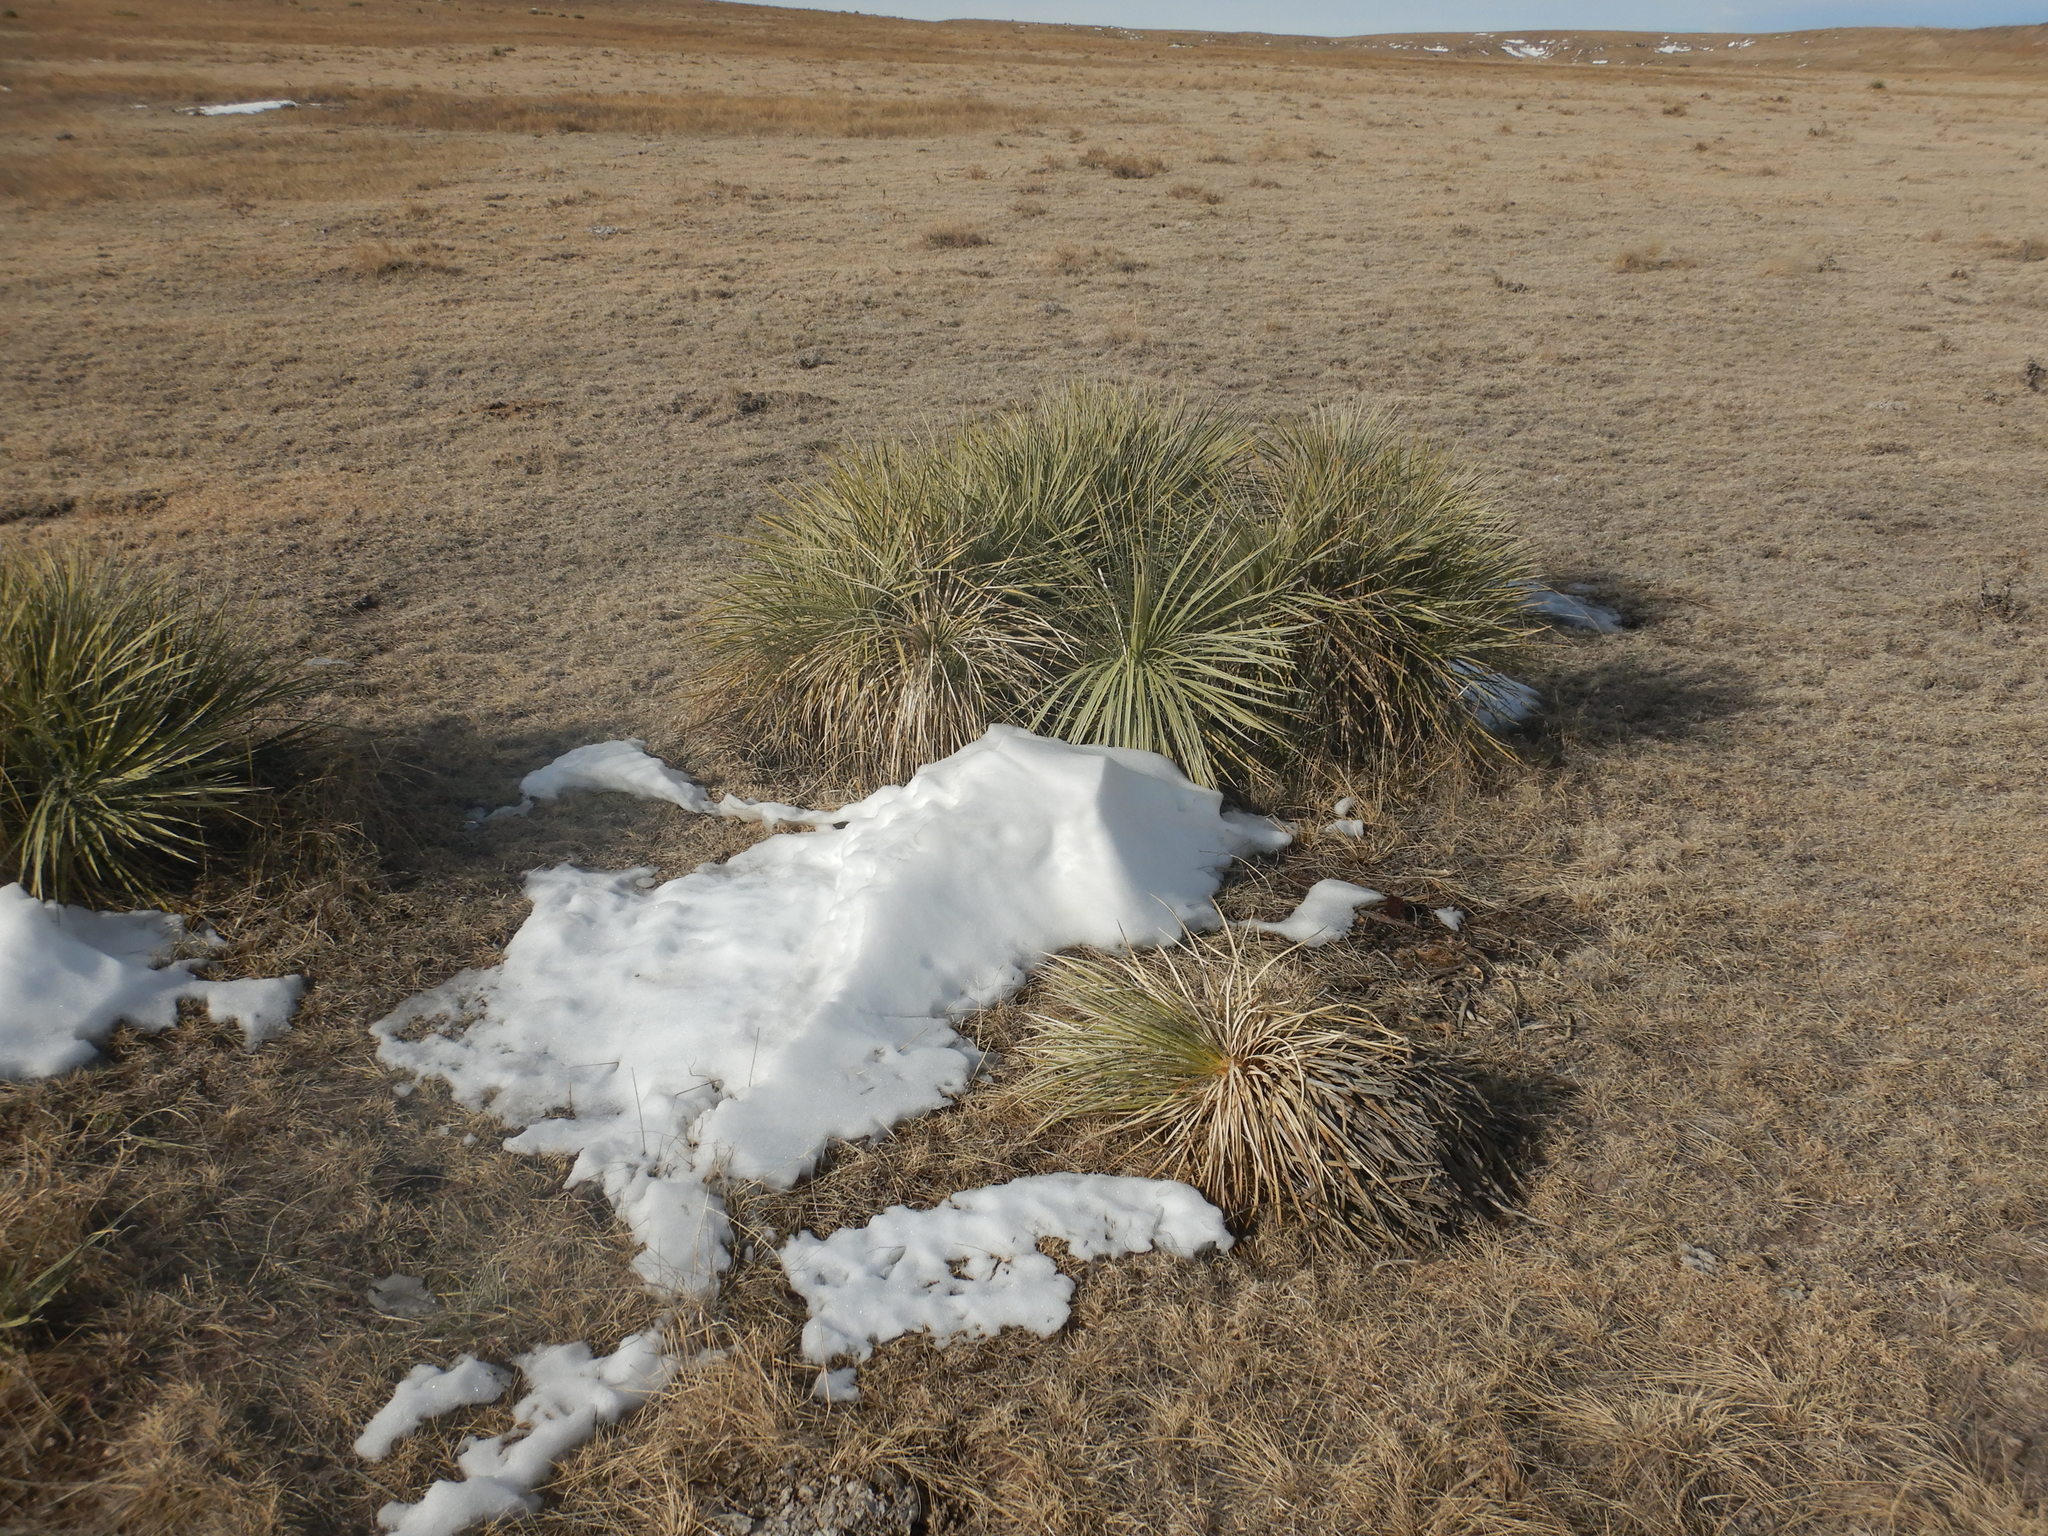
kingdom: Plantae
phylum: Tracheophyta
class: Liliopsida
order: Asparagales
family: Asparagaceae
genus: Yucca
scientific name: Yucca glauca
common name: Great plains yucca
